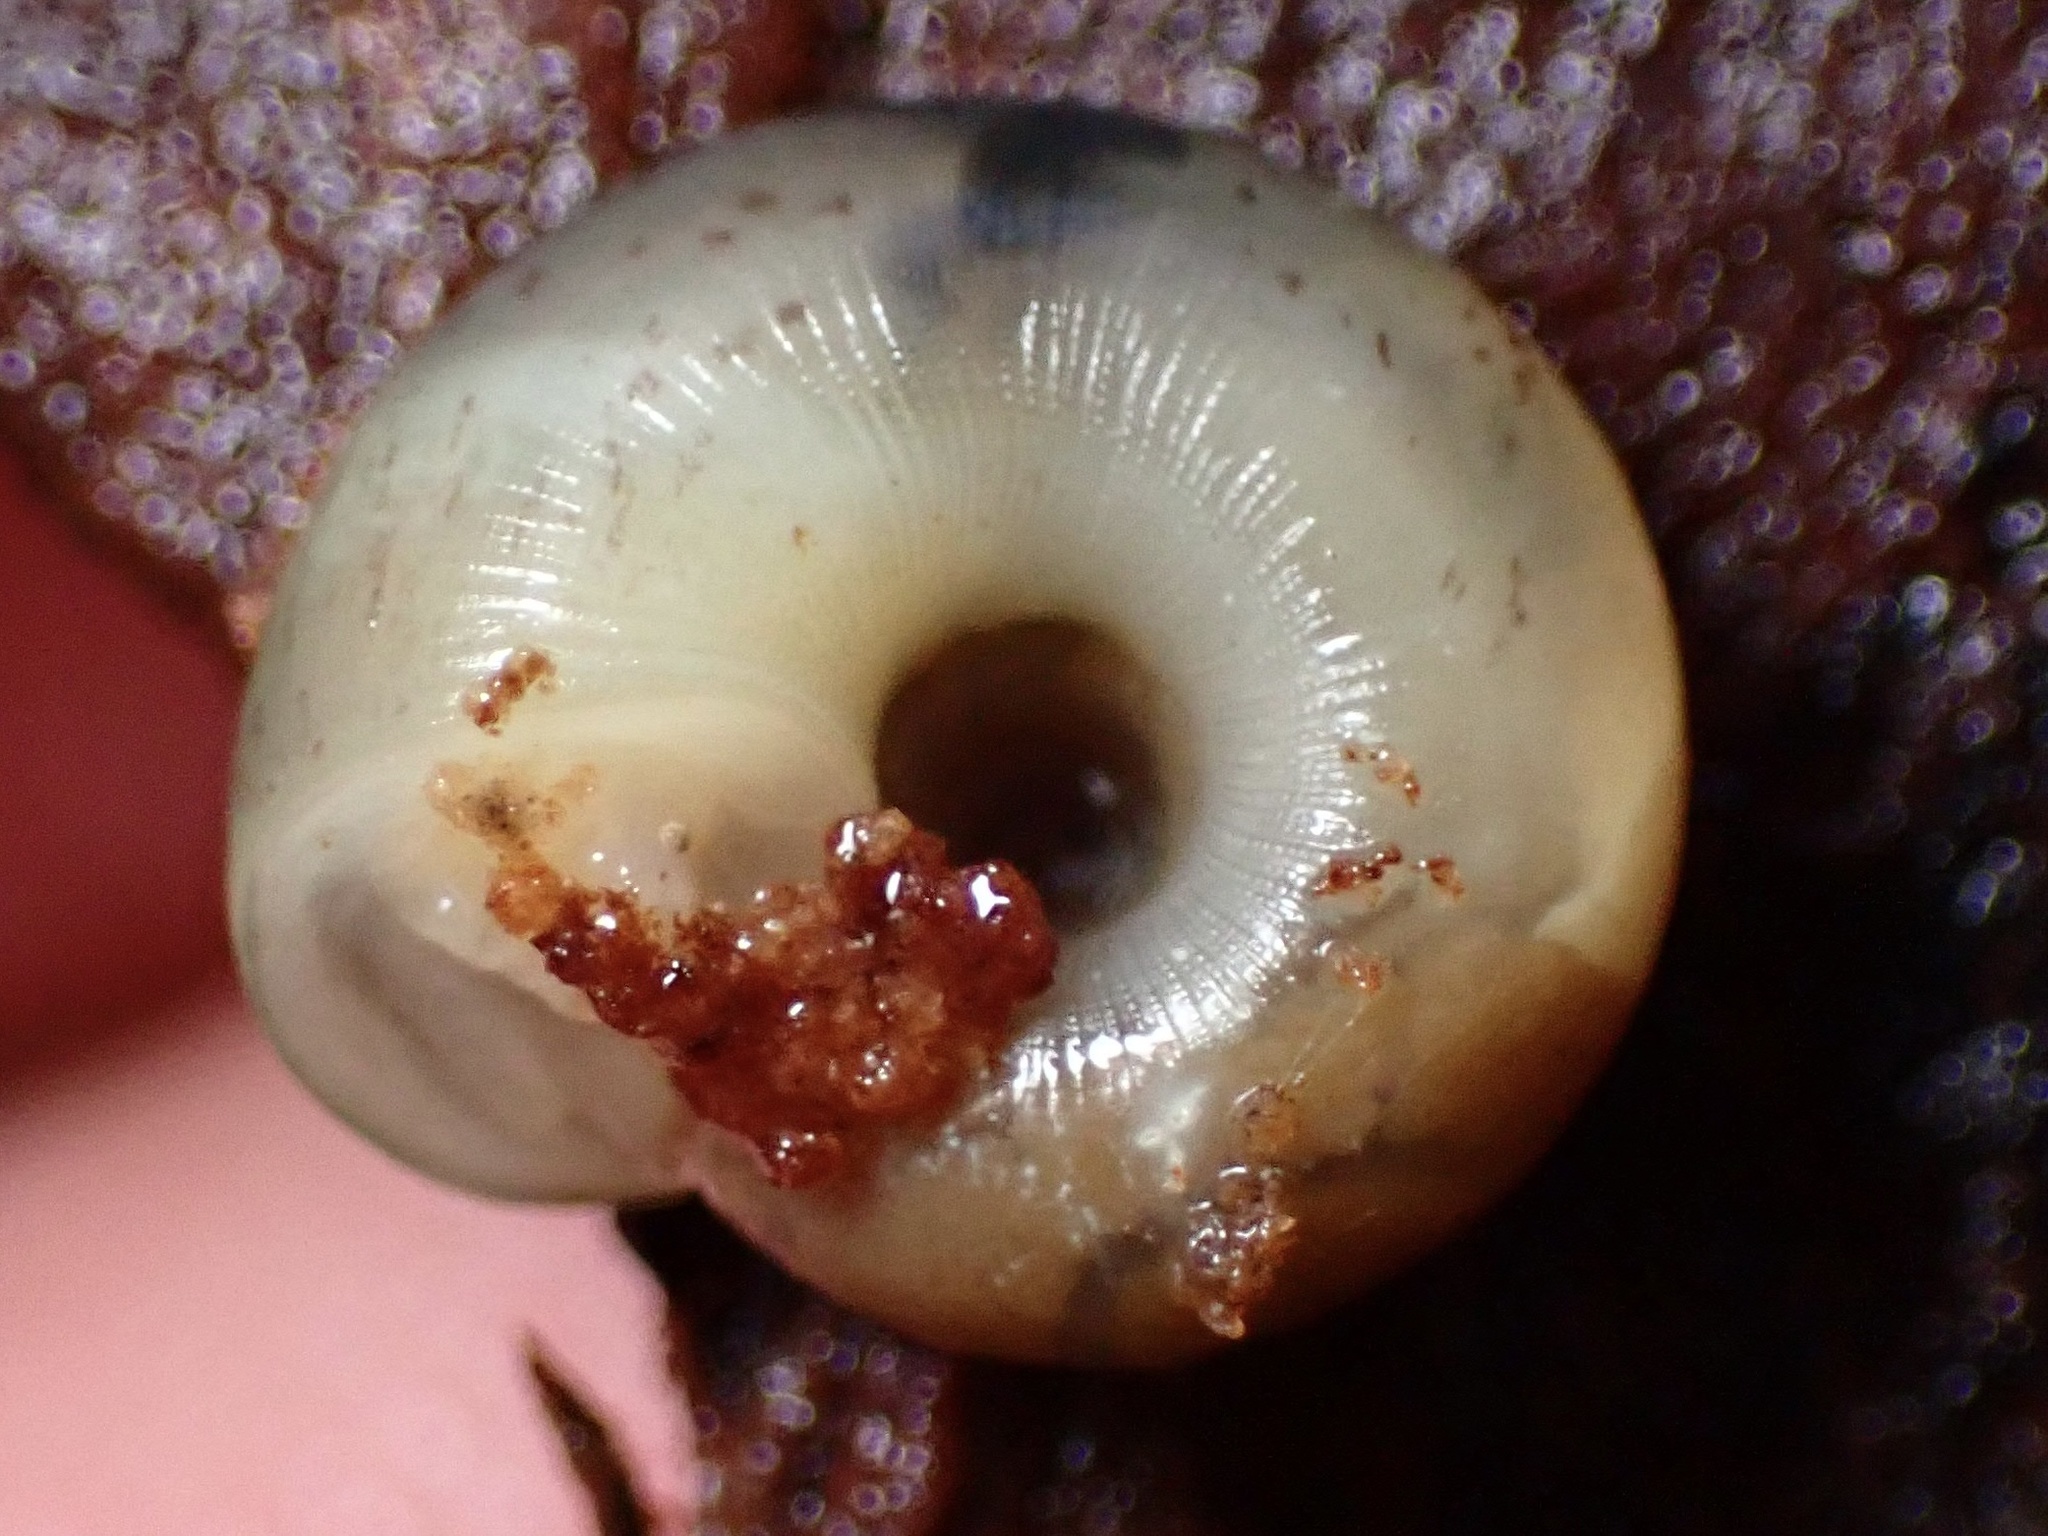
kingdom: Animalia
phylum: Mollusca
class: Gastropoda
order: Stylommatophora
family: Haplotrematidae
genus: Ancotrema
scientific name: Ancotrema sportella
